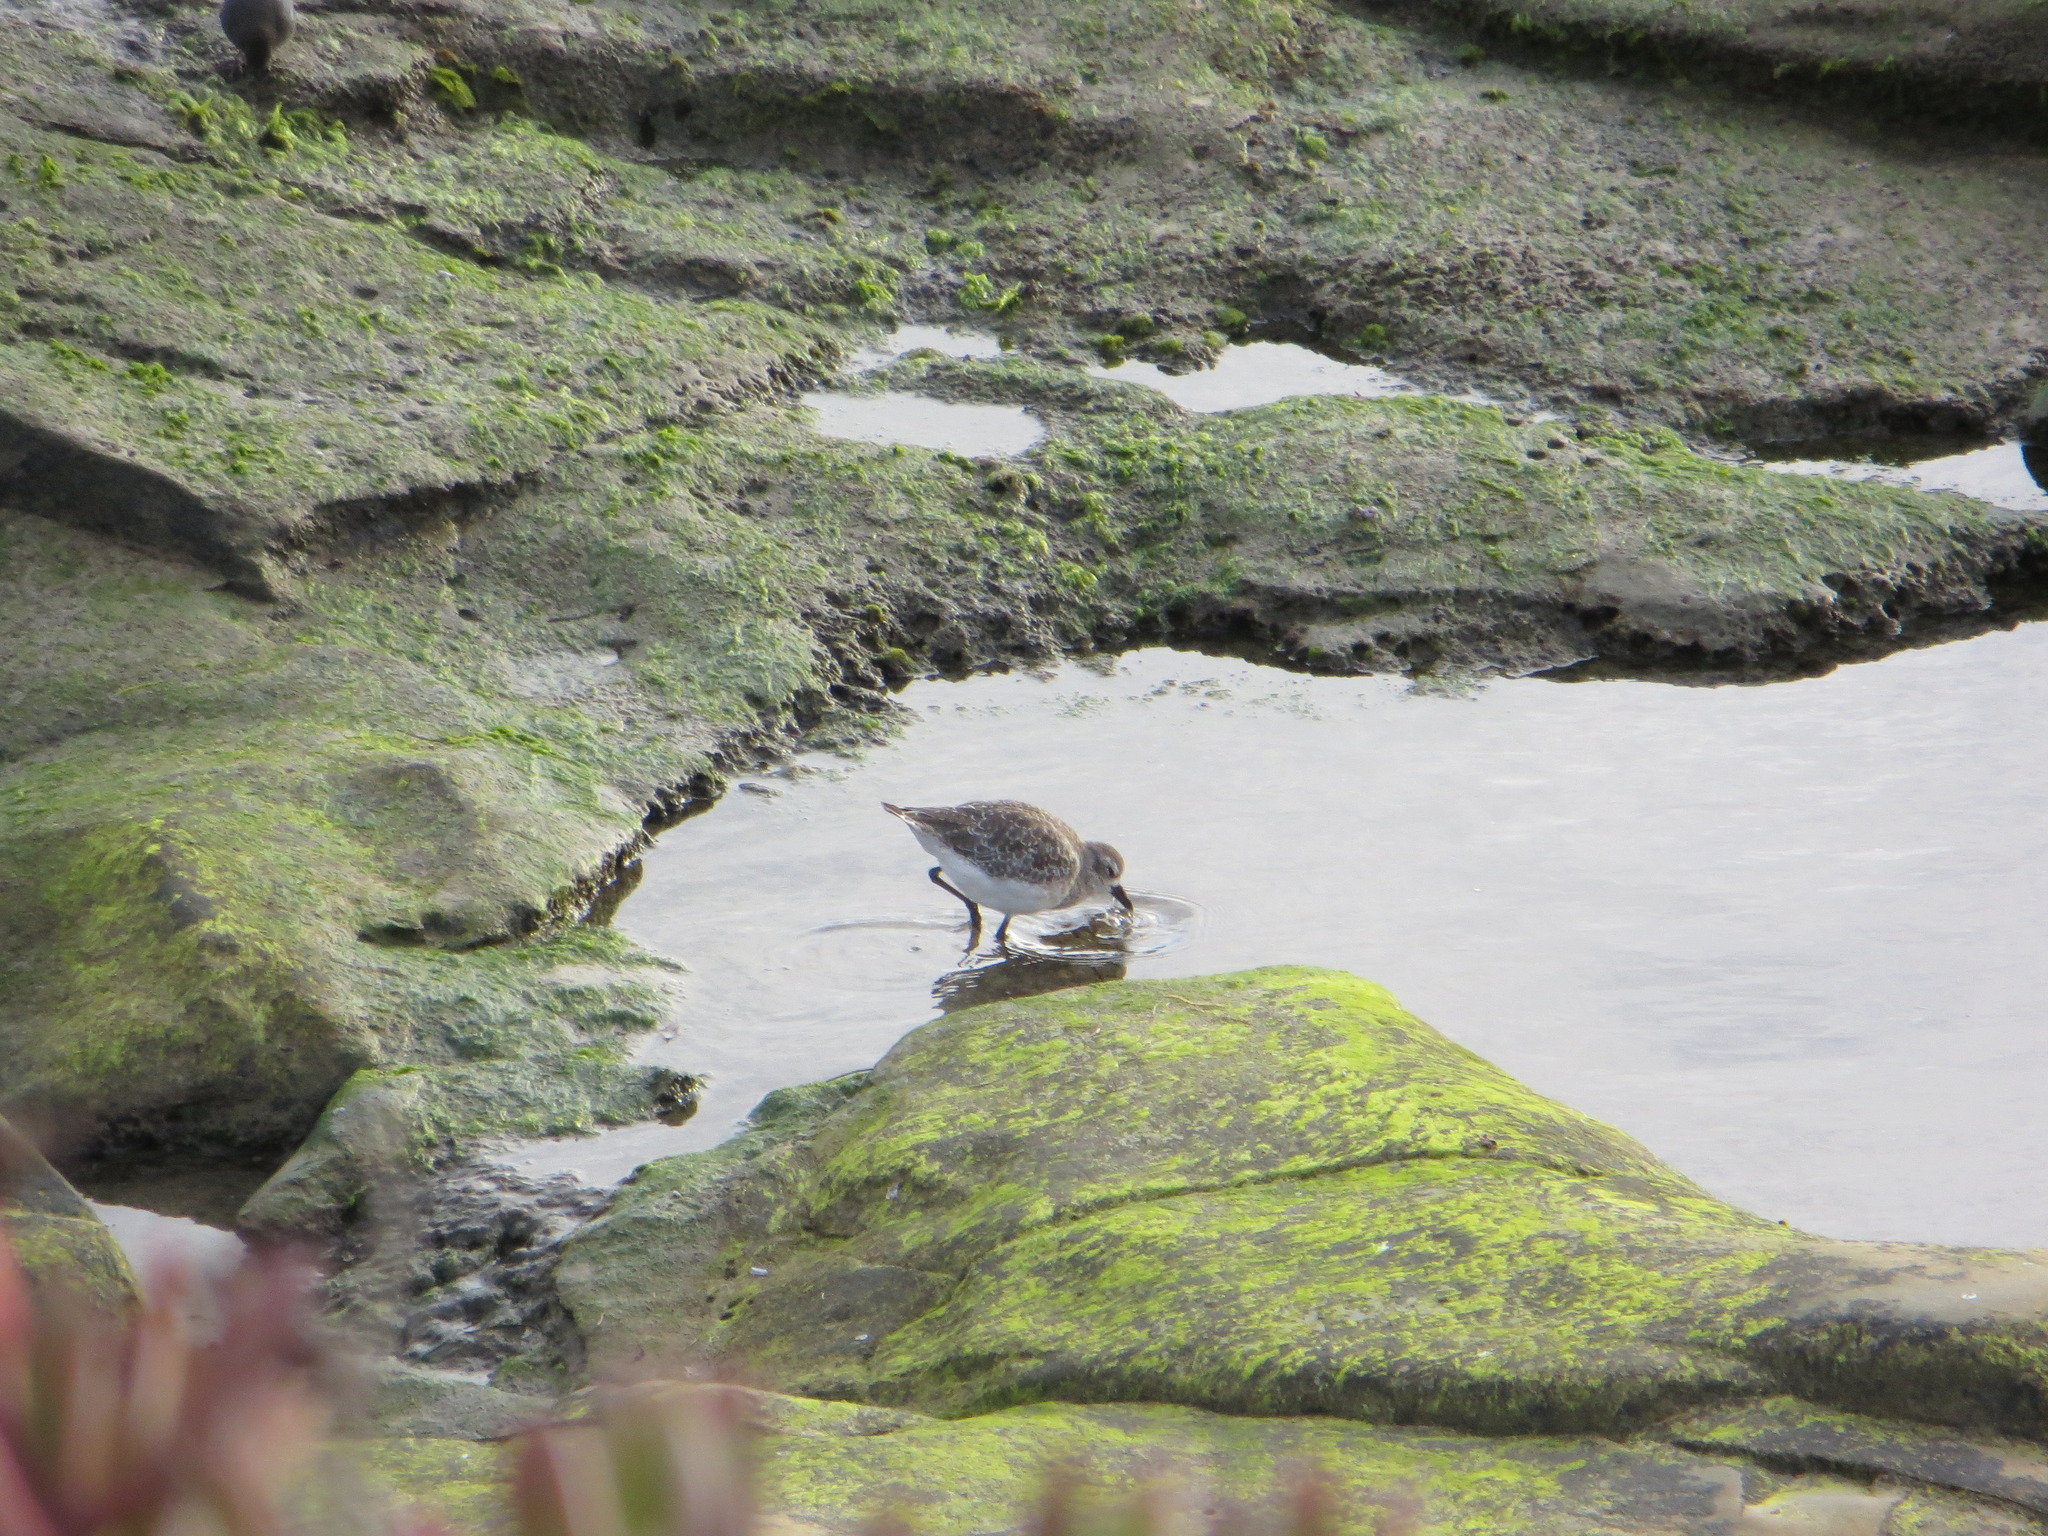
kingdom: Animalia
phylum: Chordata
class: Aves
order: Charadriiformes
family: Charadriidae
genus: Pluvialis
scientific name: Pluvialis squatarola
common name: Grey plover
